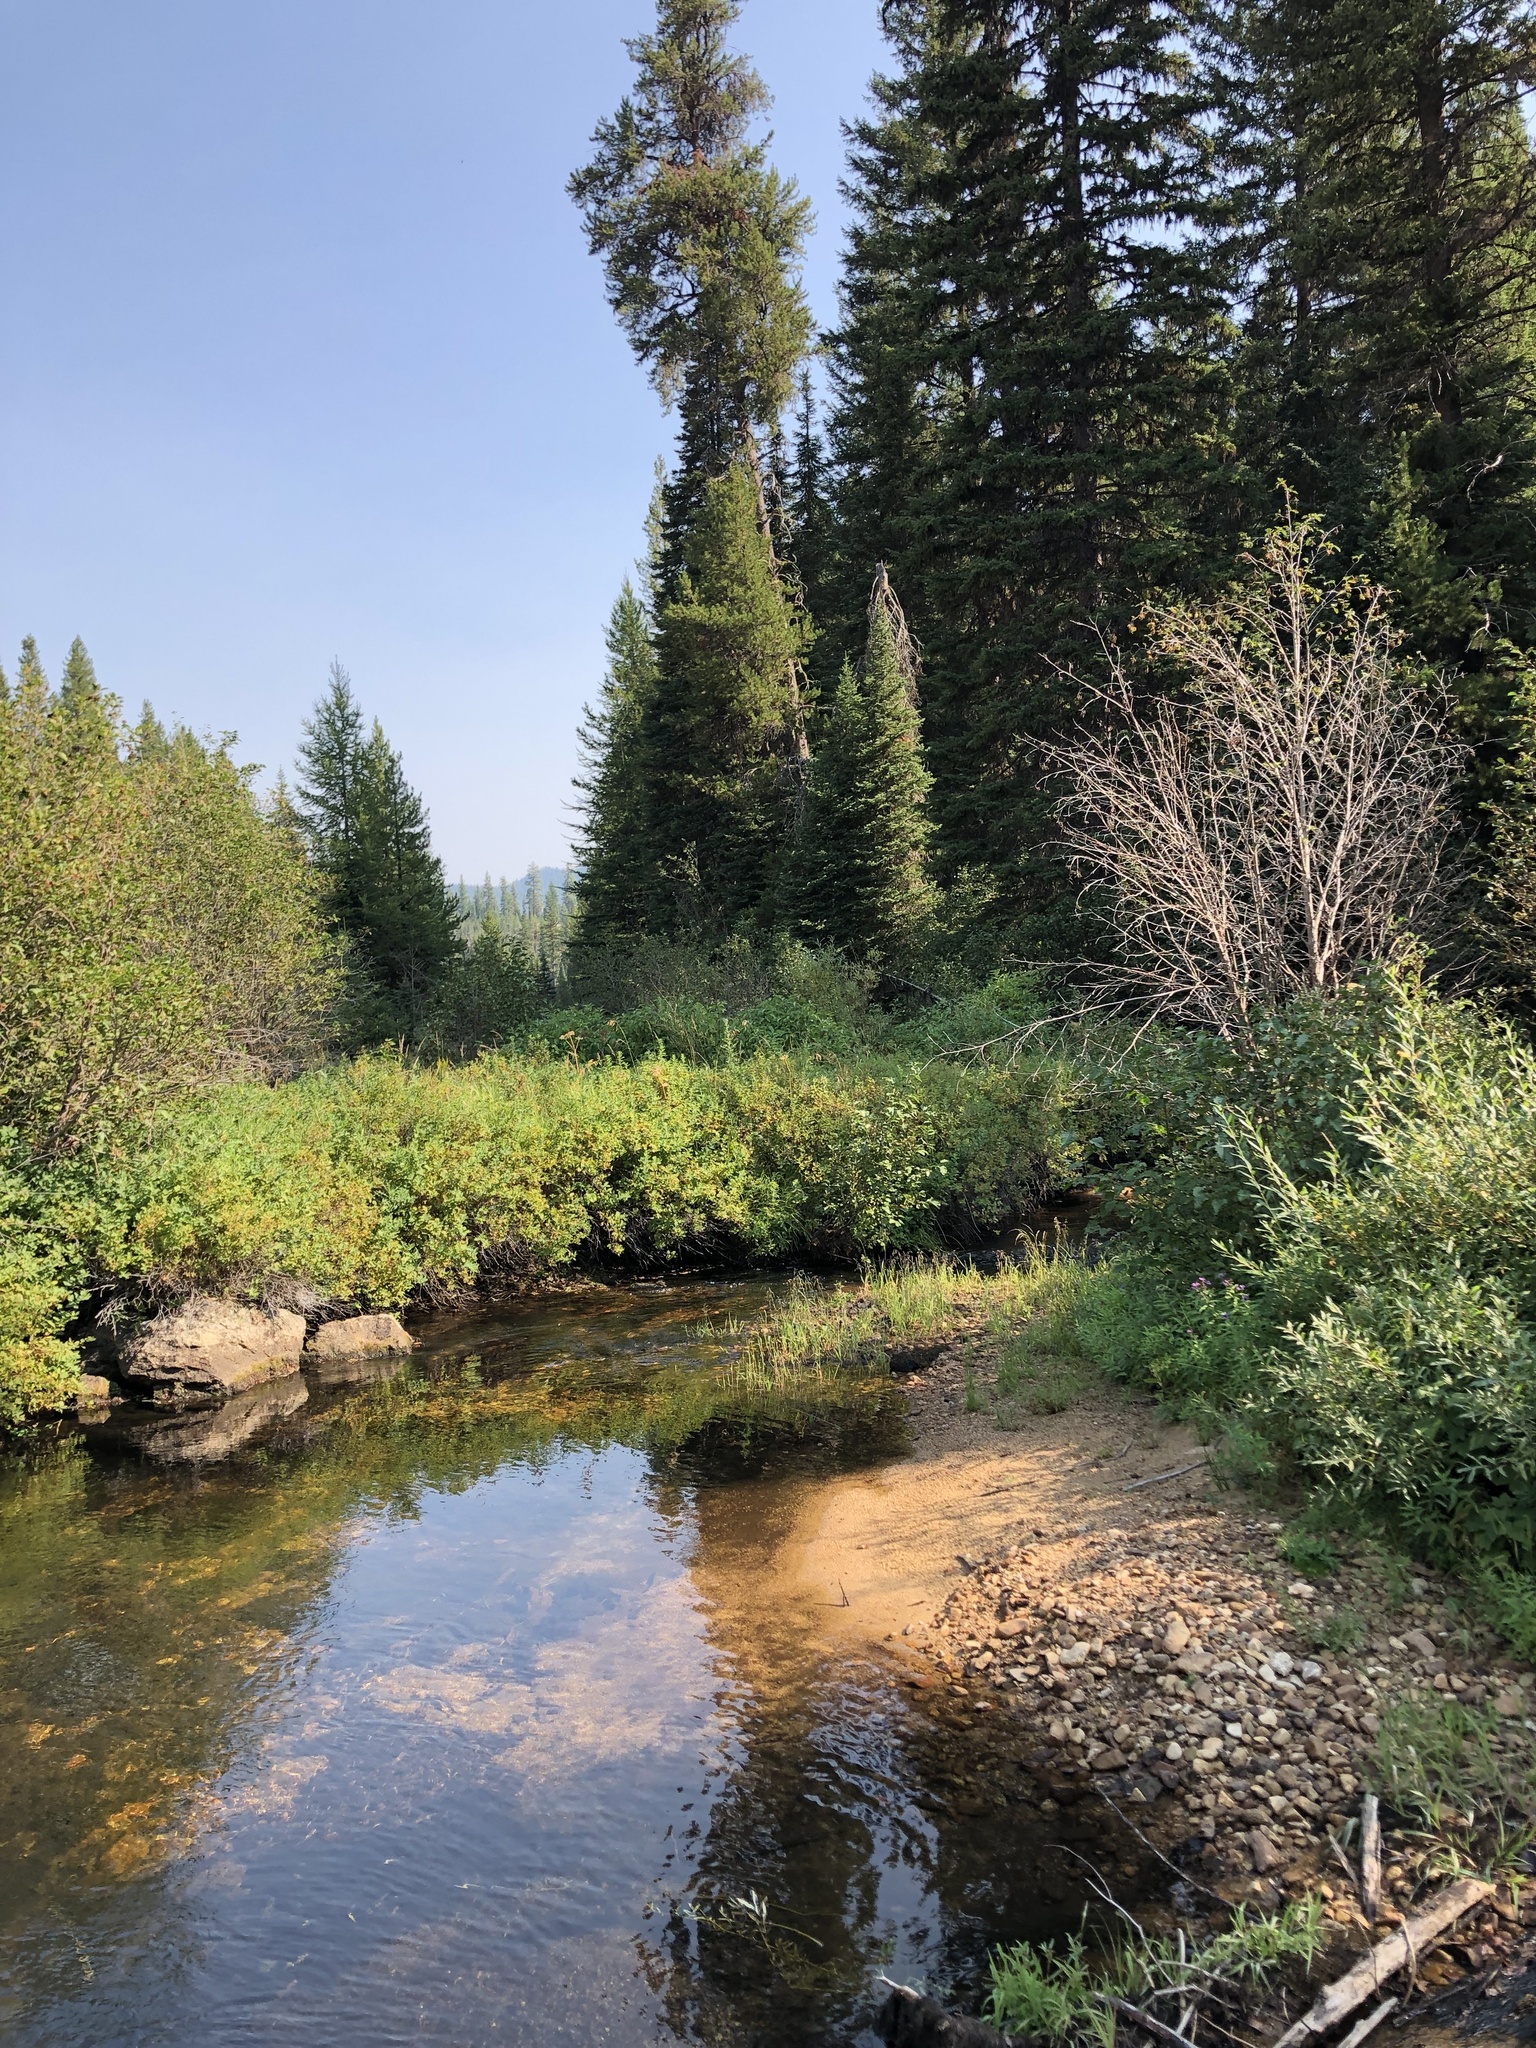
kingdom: Plantae
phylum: Tracheophyta
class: Magnoliopsida
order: Asterales
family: Asteraceae
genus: Canadanthus
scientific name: Canadanthus modestus
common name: Great northern aster
